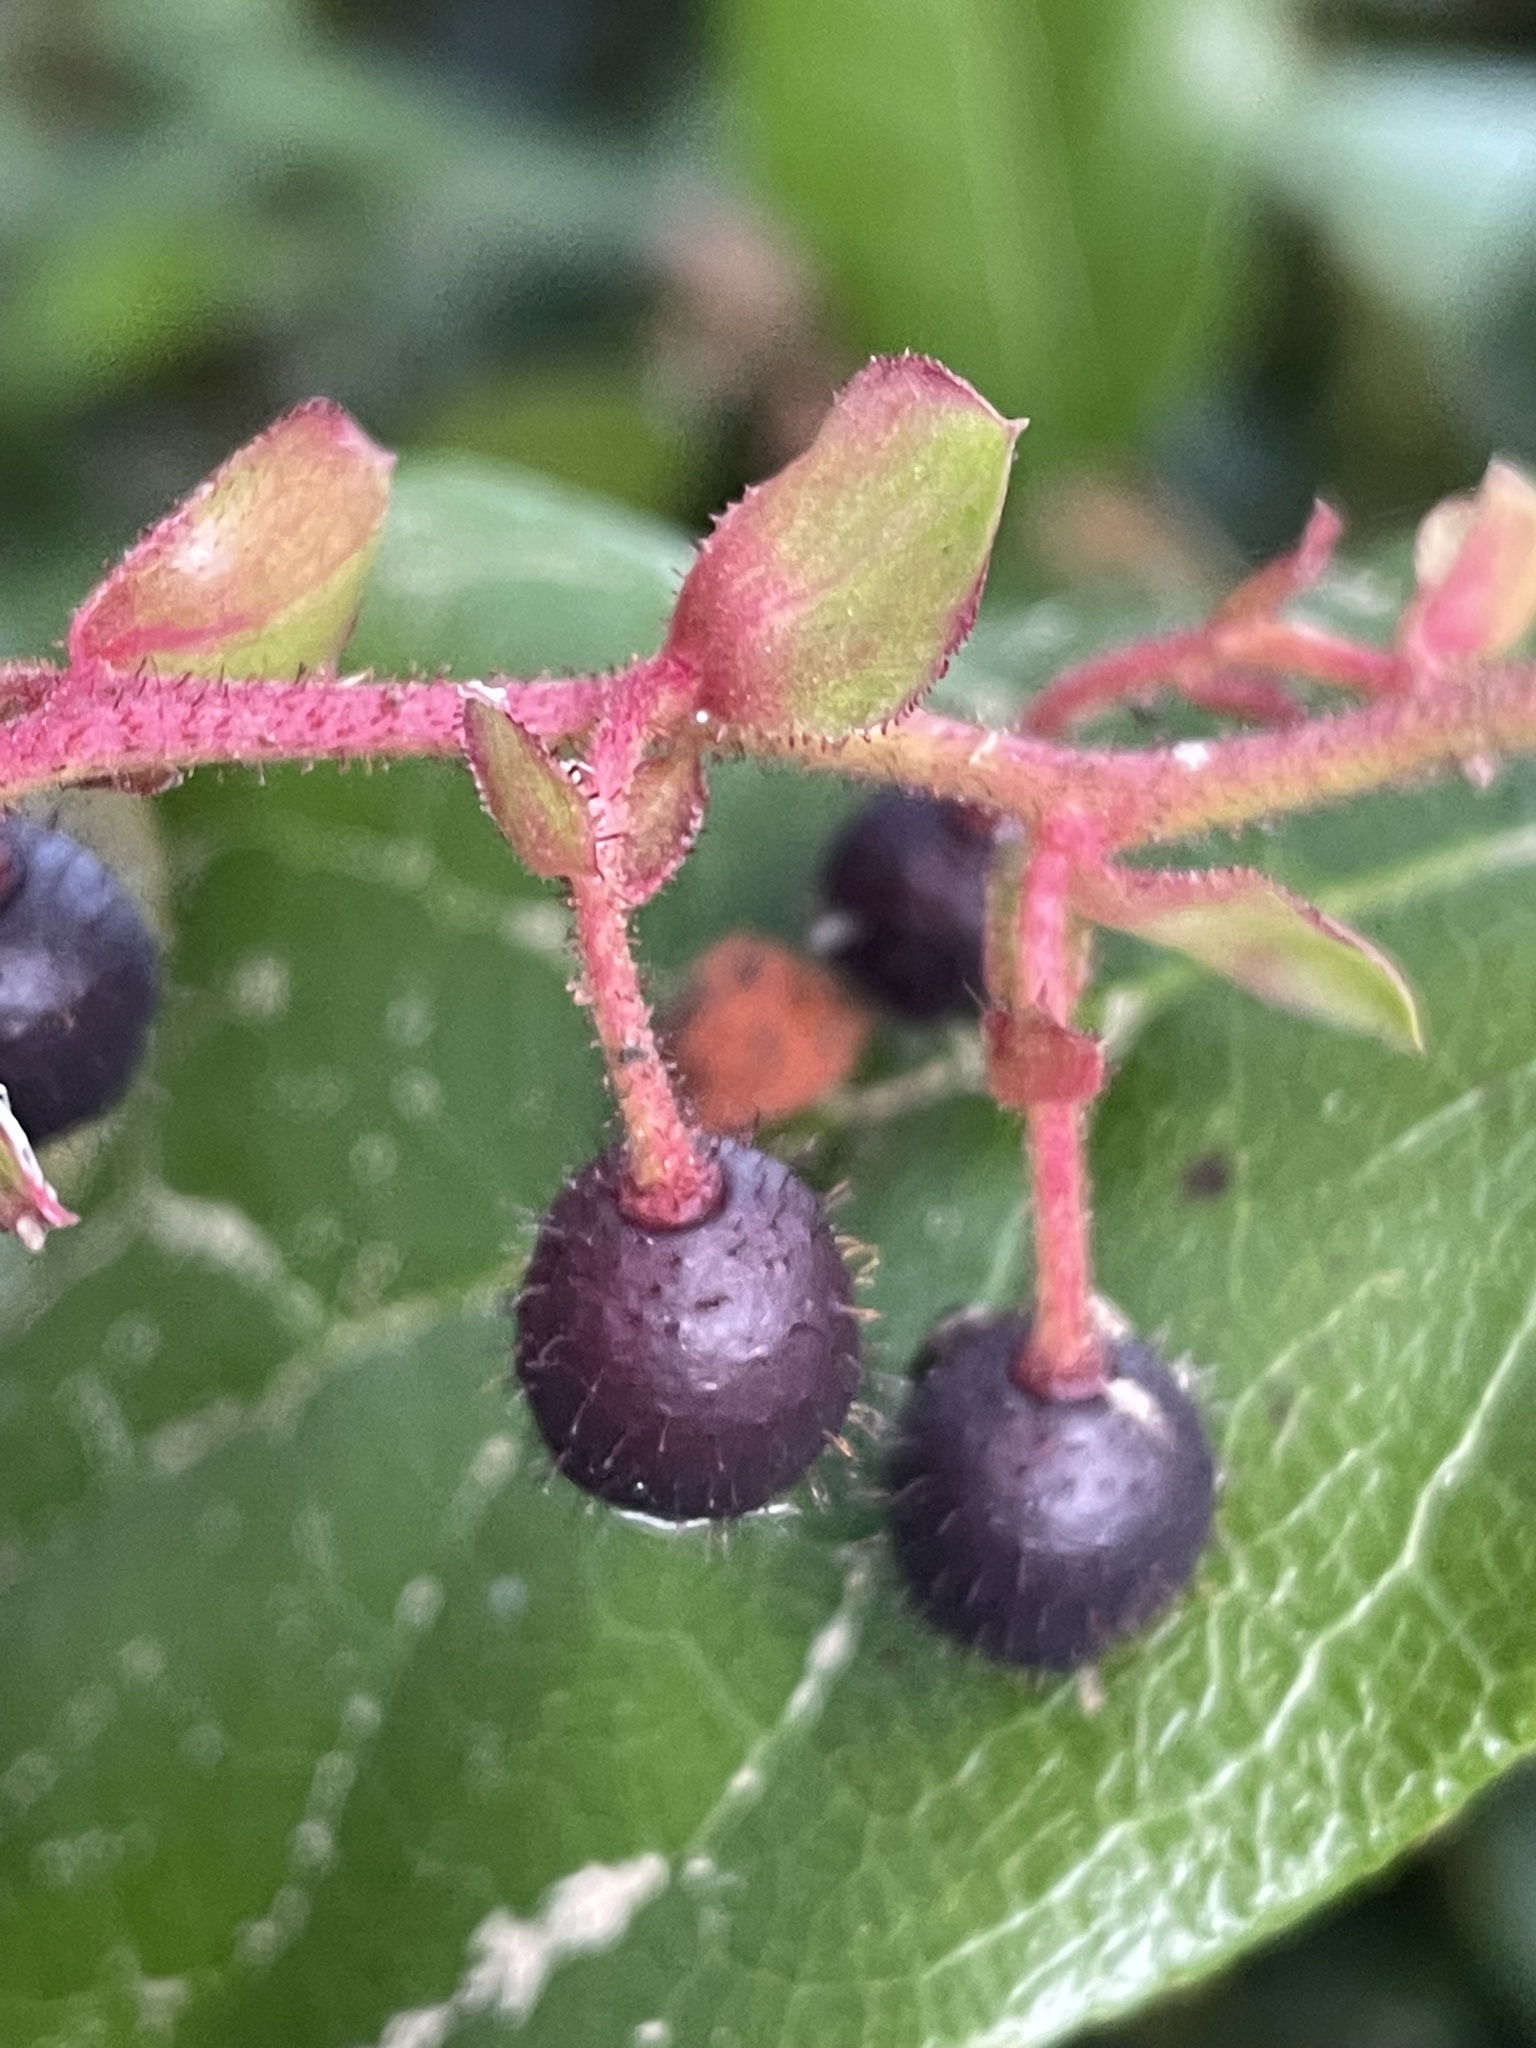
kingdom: Plantae
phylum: Tracheophyta
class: Magnoliopsida
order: Ericales
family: Ericaceae
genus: Gaultheria
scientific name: Gaultheria shallon
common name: Shallon
